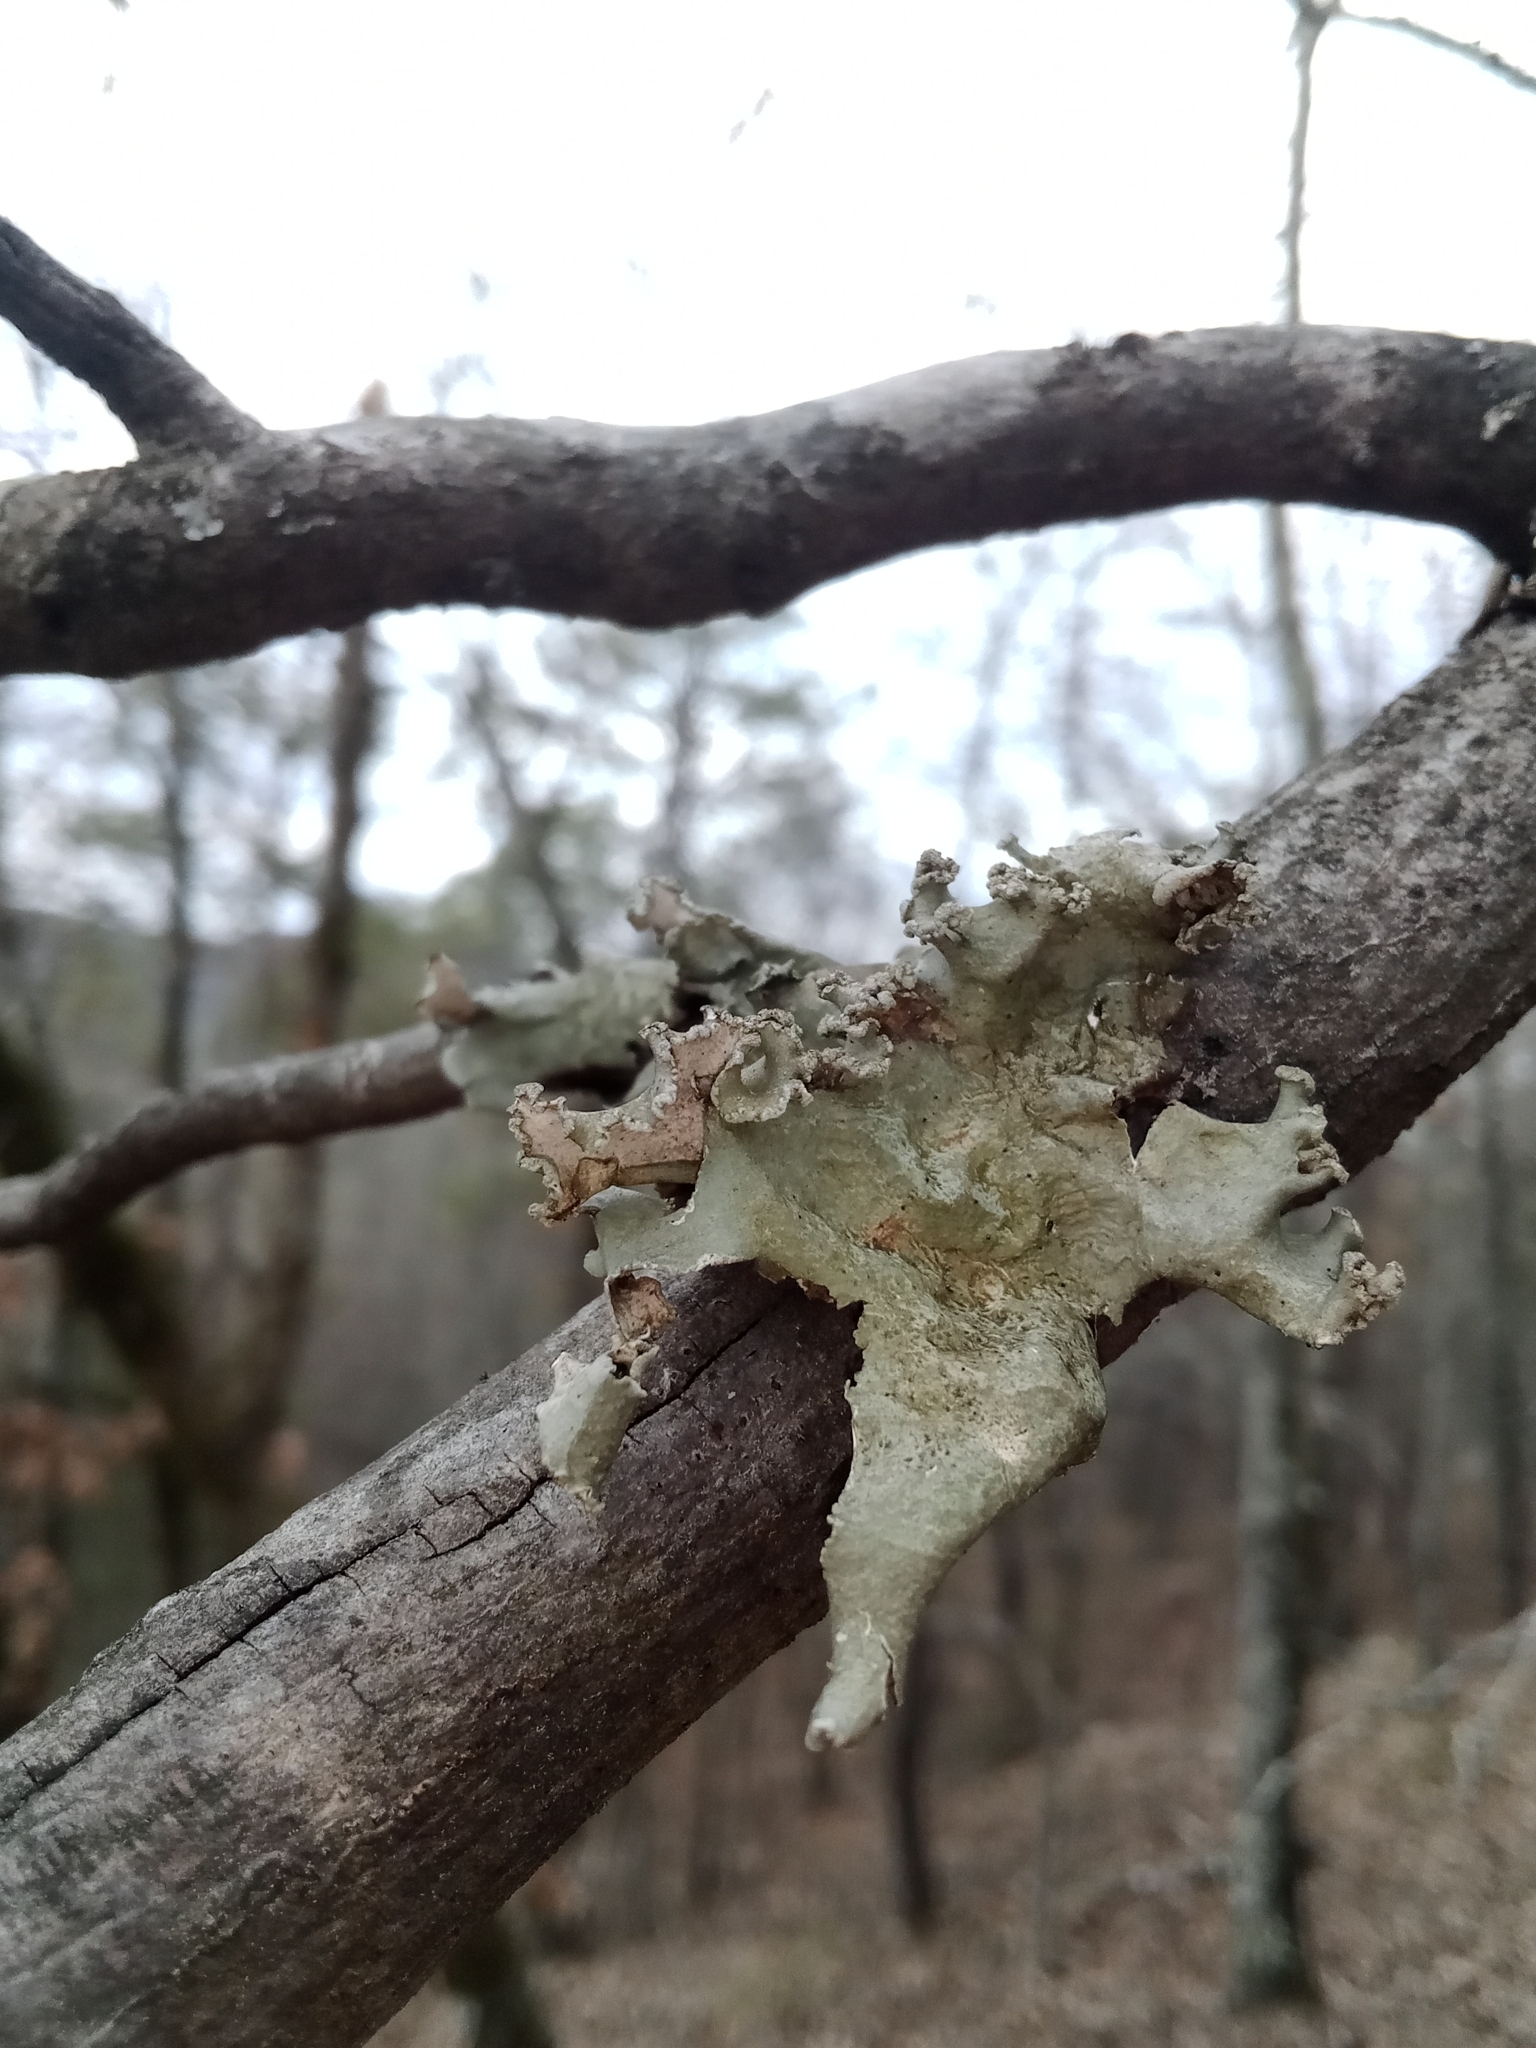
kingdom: Fungi
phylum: Ascomycota
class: Lecanoromycetes
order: Lecanorales
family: Parmeliaceae
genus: Parmotrema
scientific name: Parmotrema hypotropum
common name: Powdered ruffle lichen
